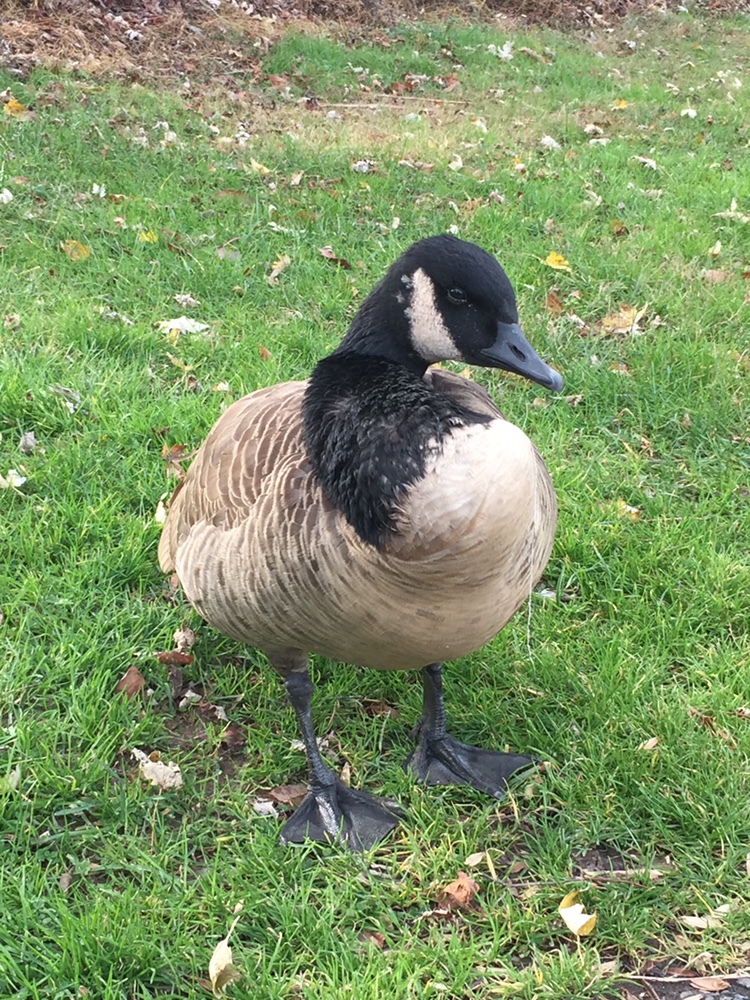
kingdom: Animalia
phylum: Chordata
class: Aves
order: Anseriformes
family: Anatidae
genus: Branta
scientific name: Branta canadensis
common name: Canada goose
